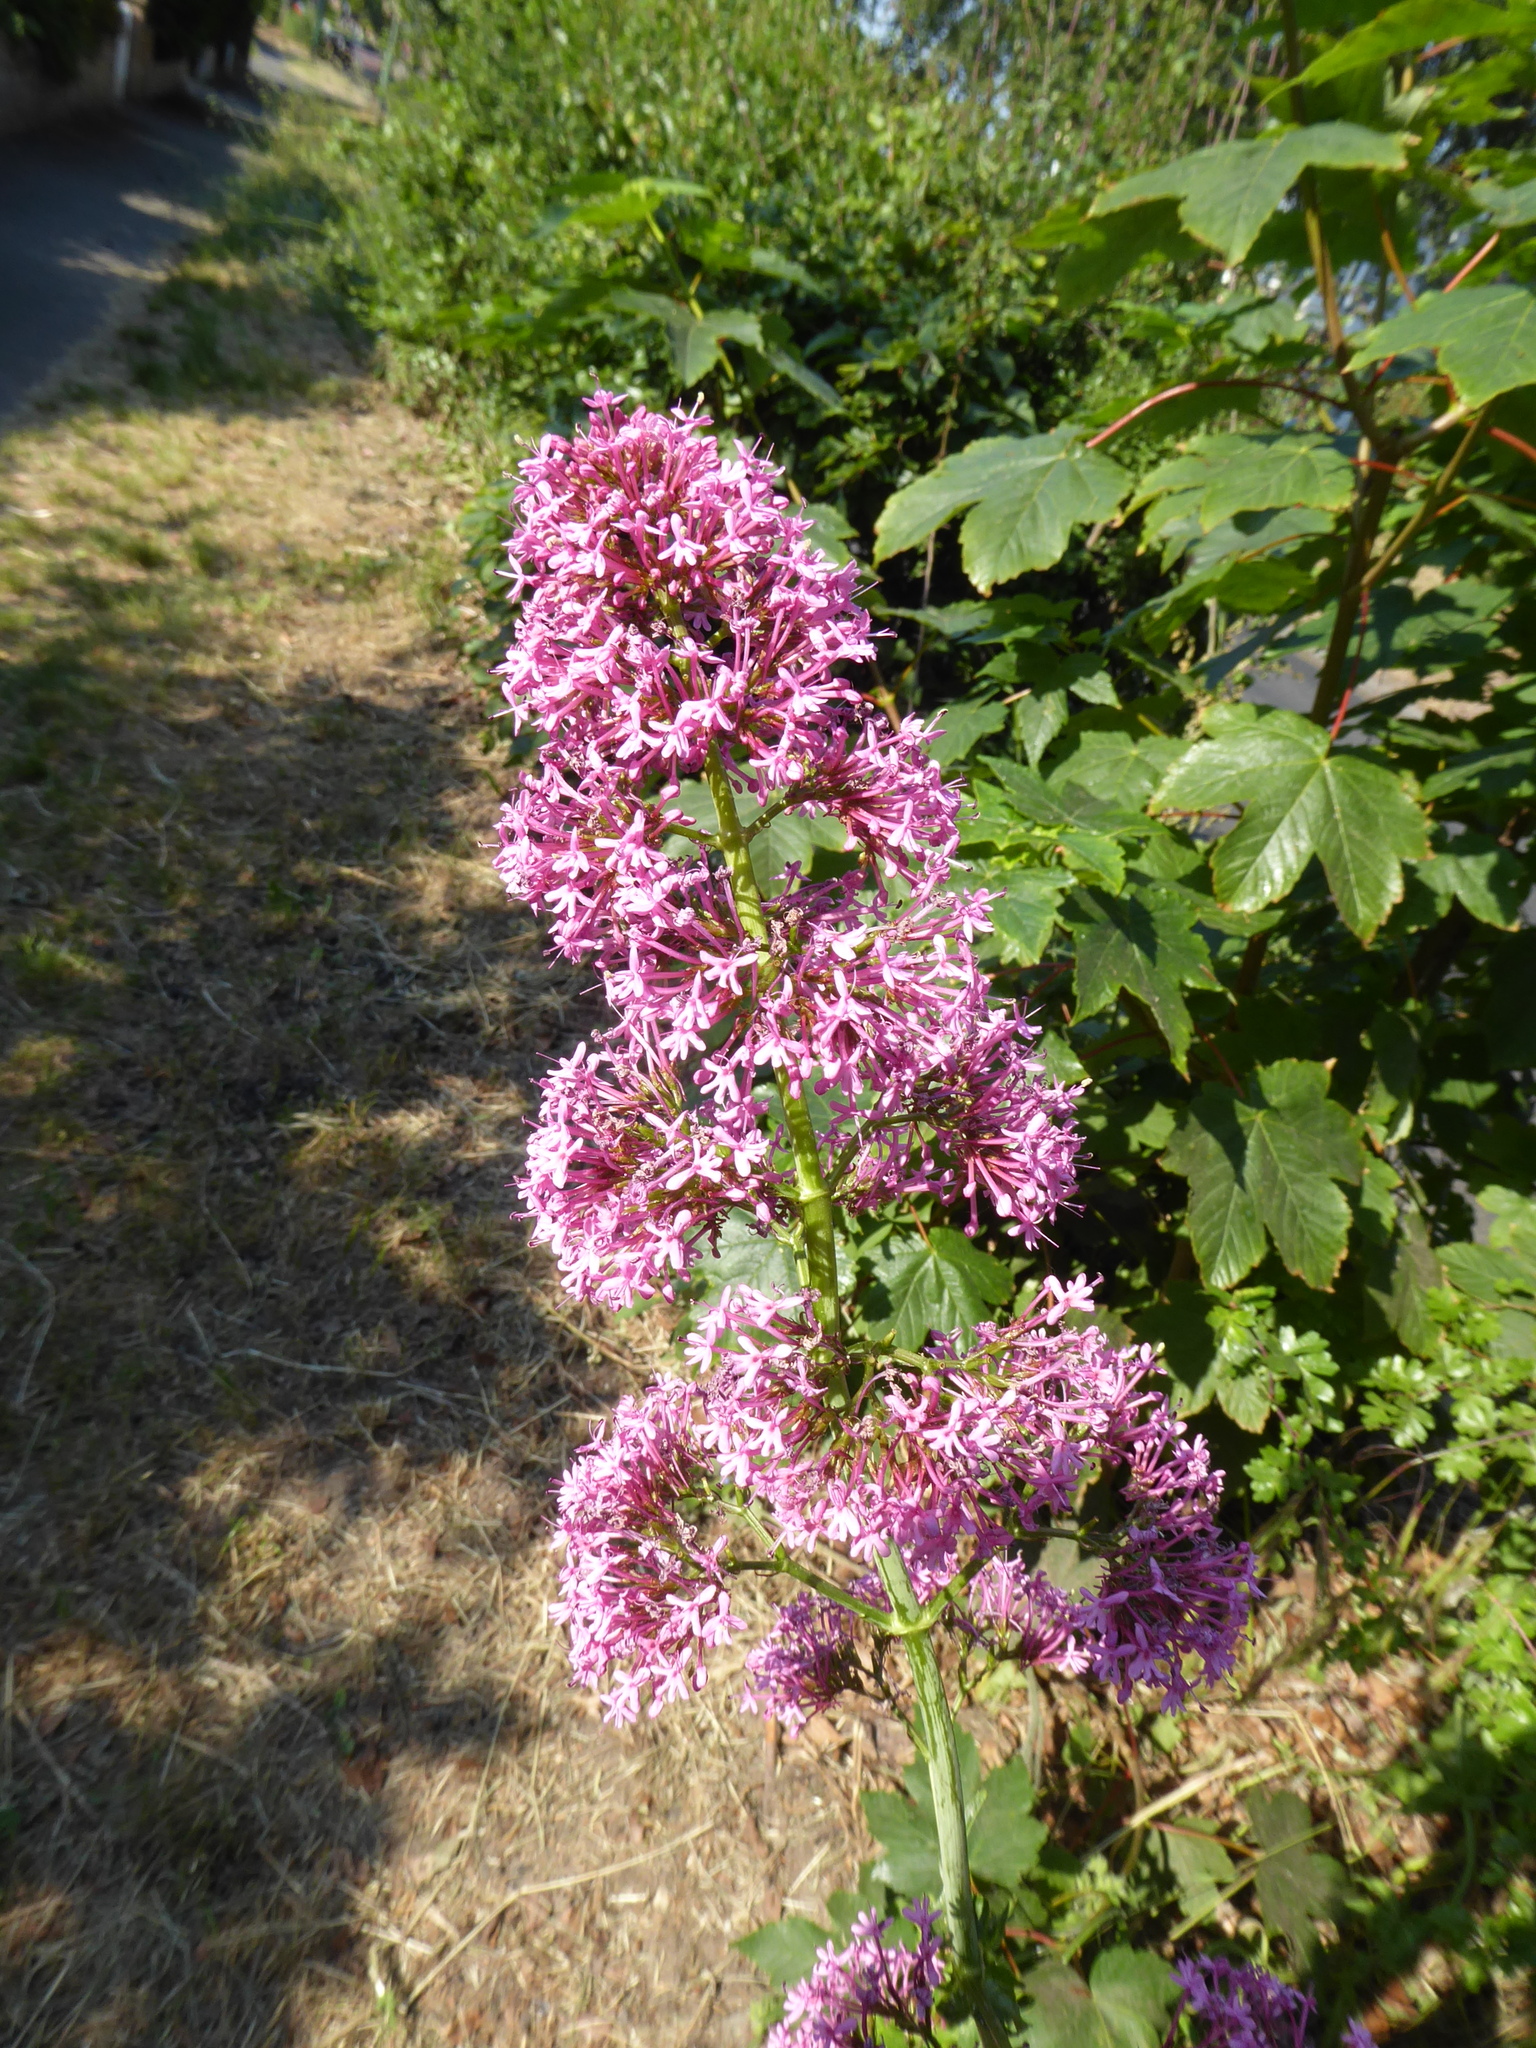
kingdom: Plantae
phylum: Tracheophyta
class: Magnoliopsida
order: Dipsacales
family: Caprifoliaceae
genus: Centranthus
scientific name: Centranthus ruber
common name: Red valerian
